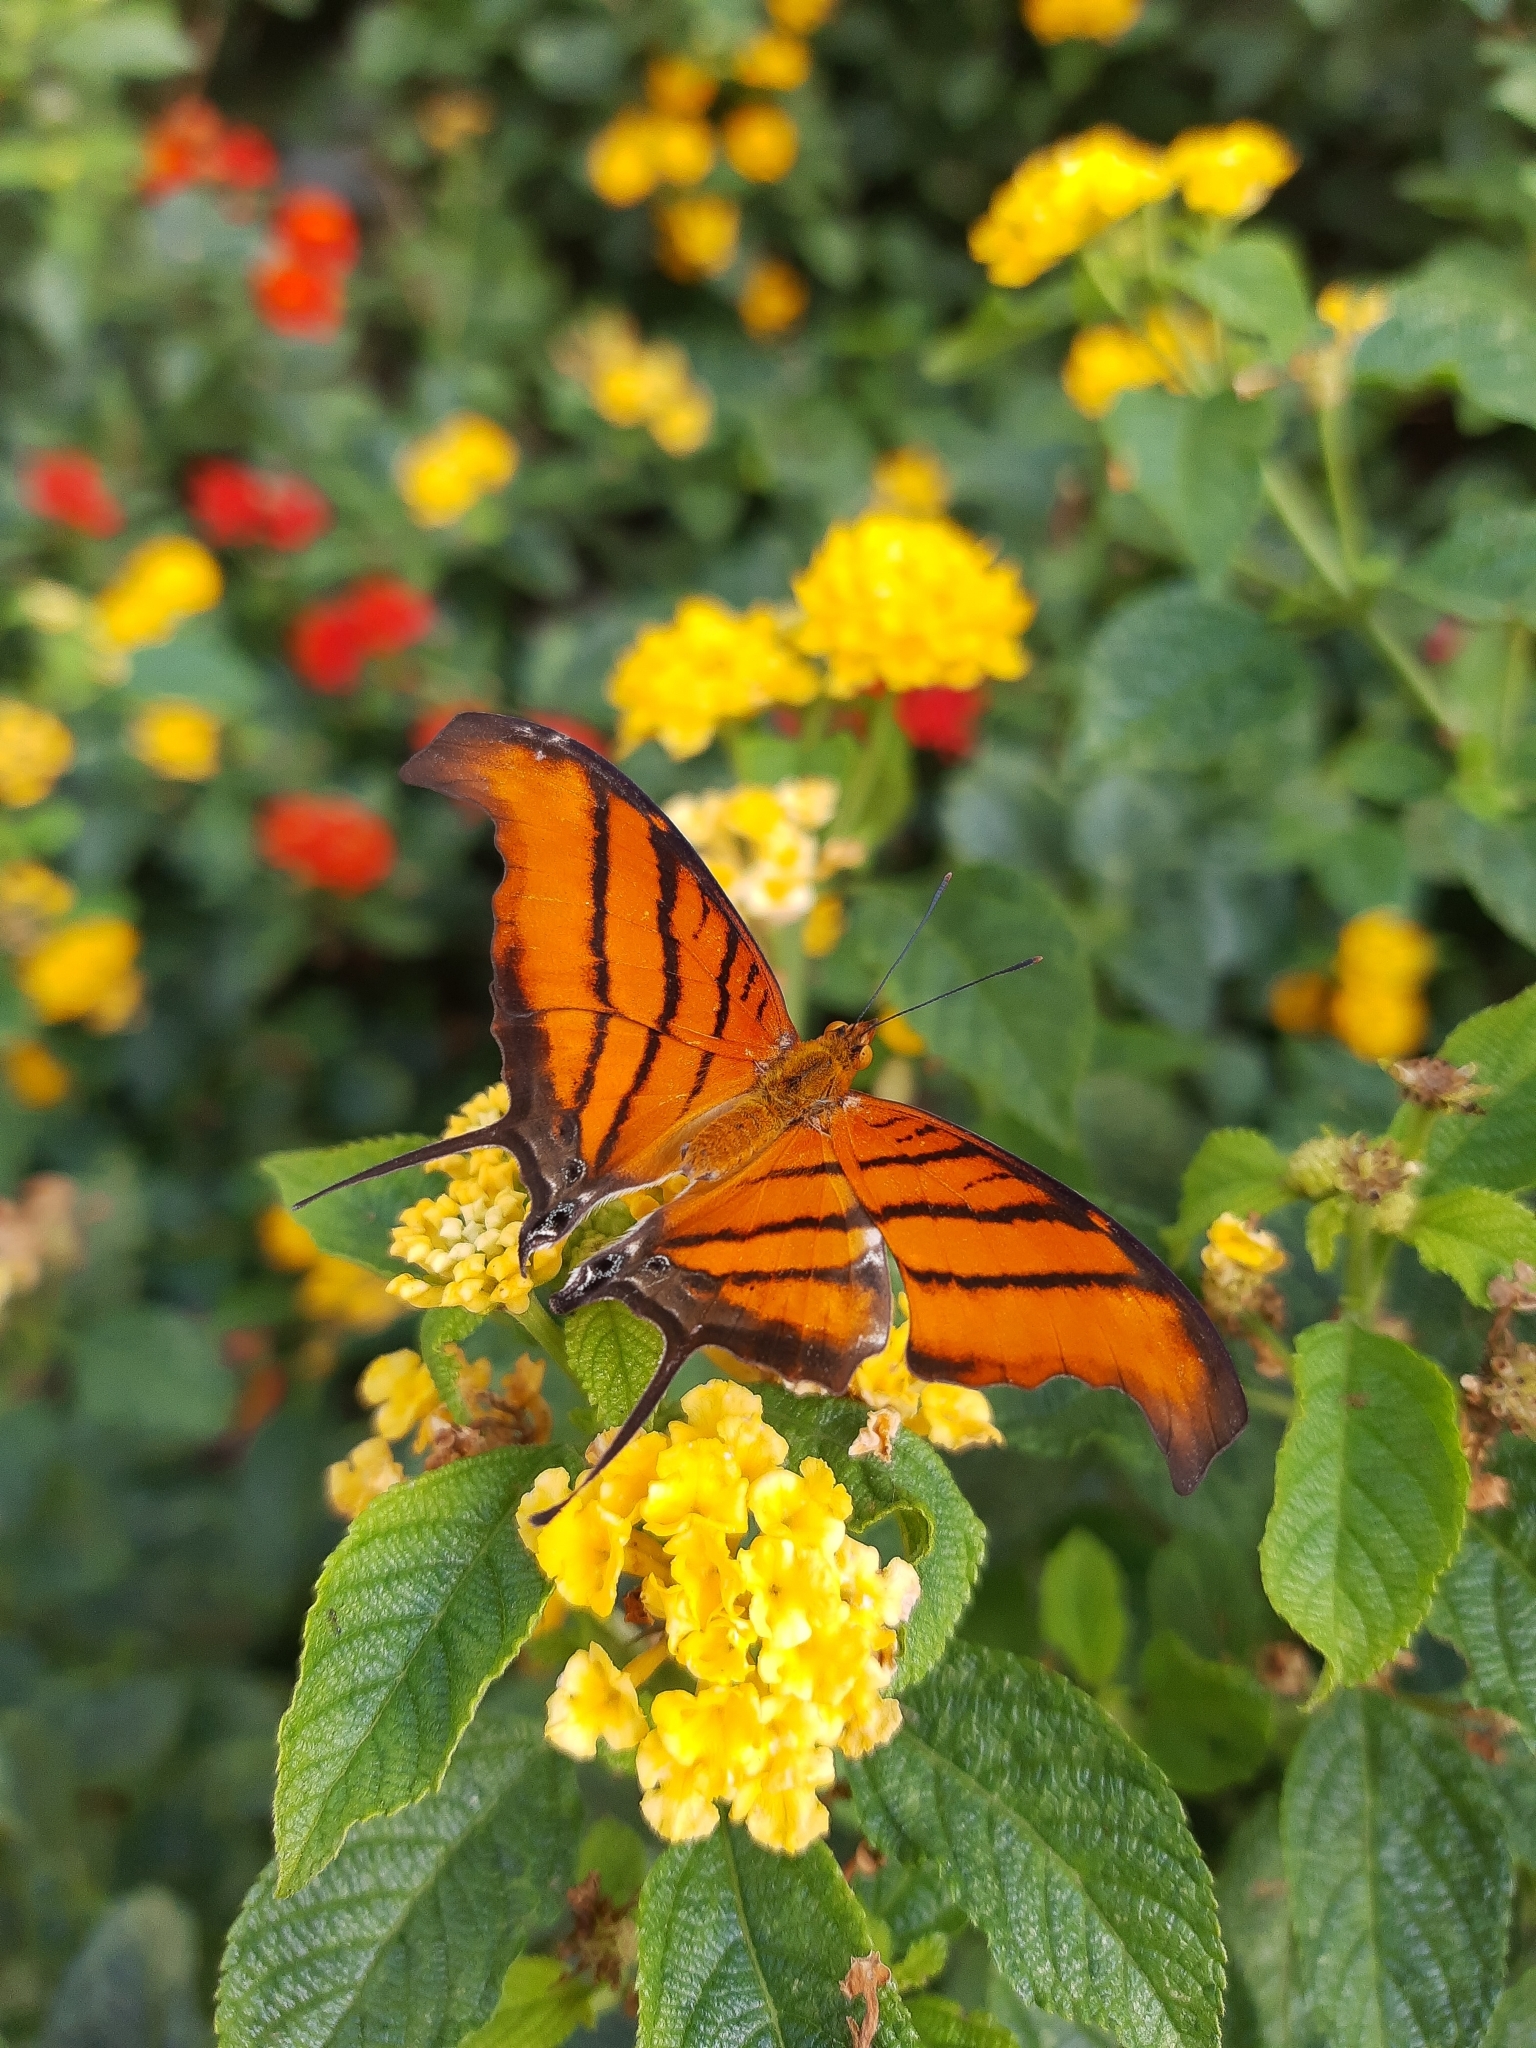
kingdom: Animalia
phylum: Arthropoda
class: Insecta
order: Lepidoptera
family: Nymphalidae
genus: Marpesia
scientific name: Marpesia petreus
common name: Red dagger wing
